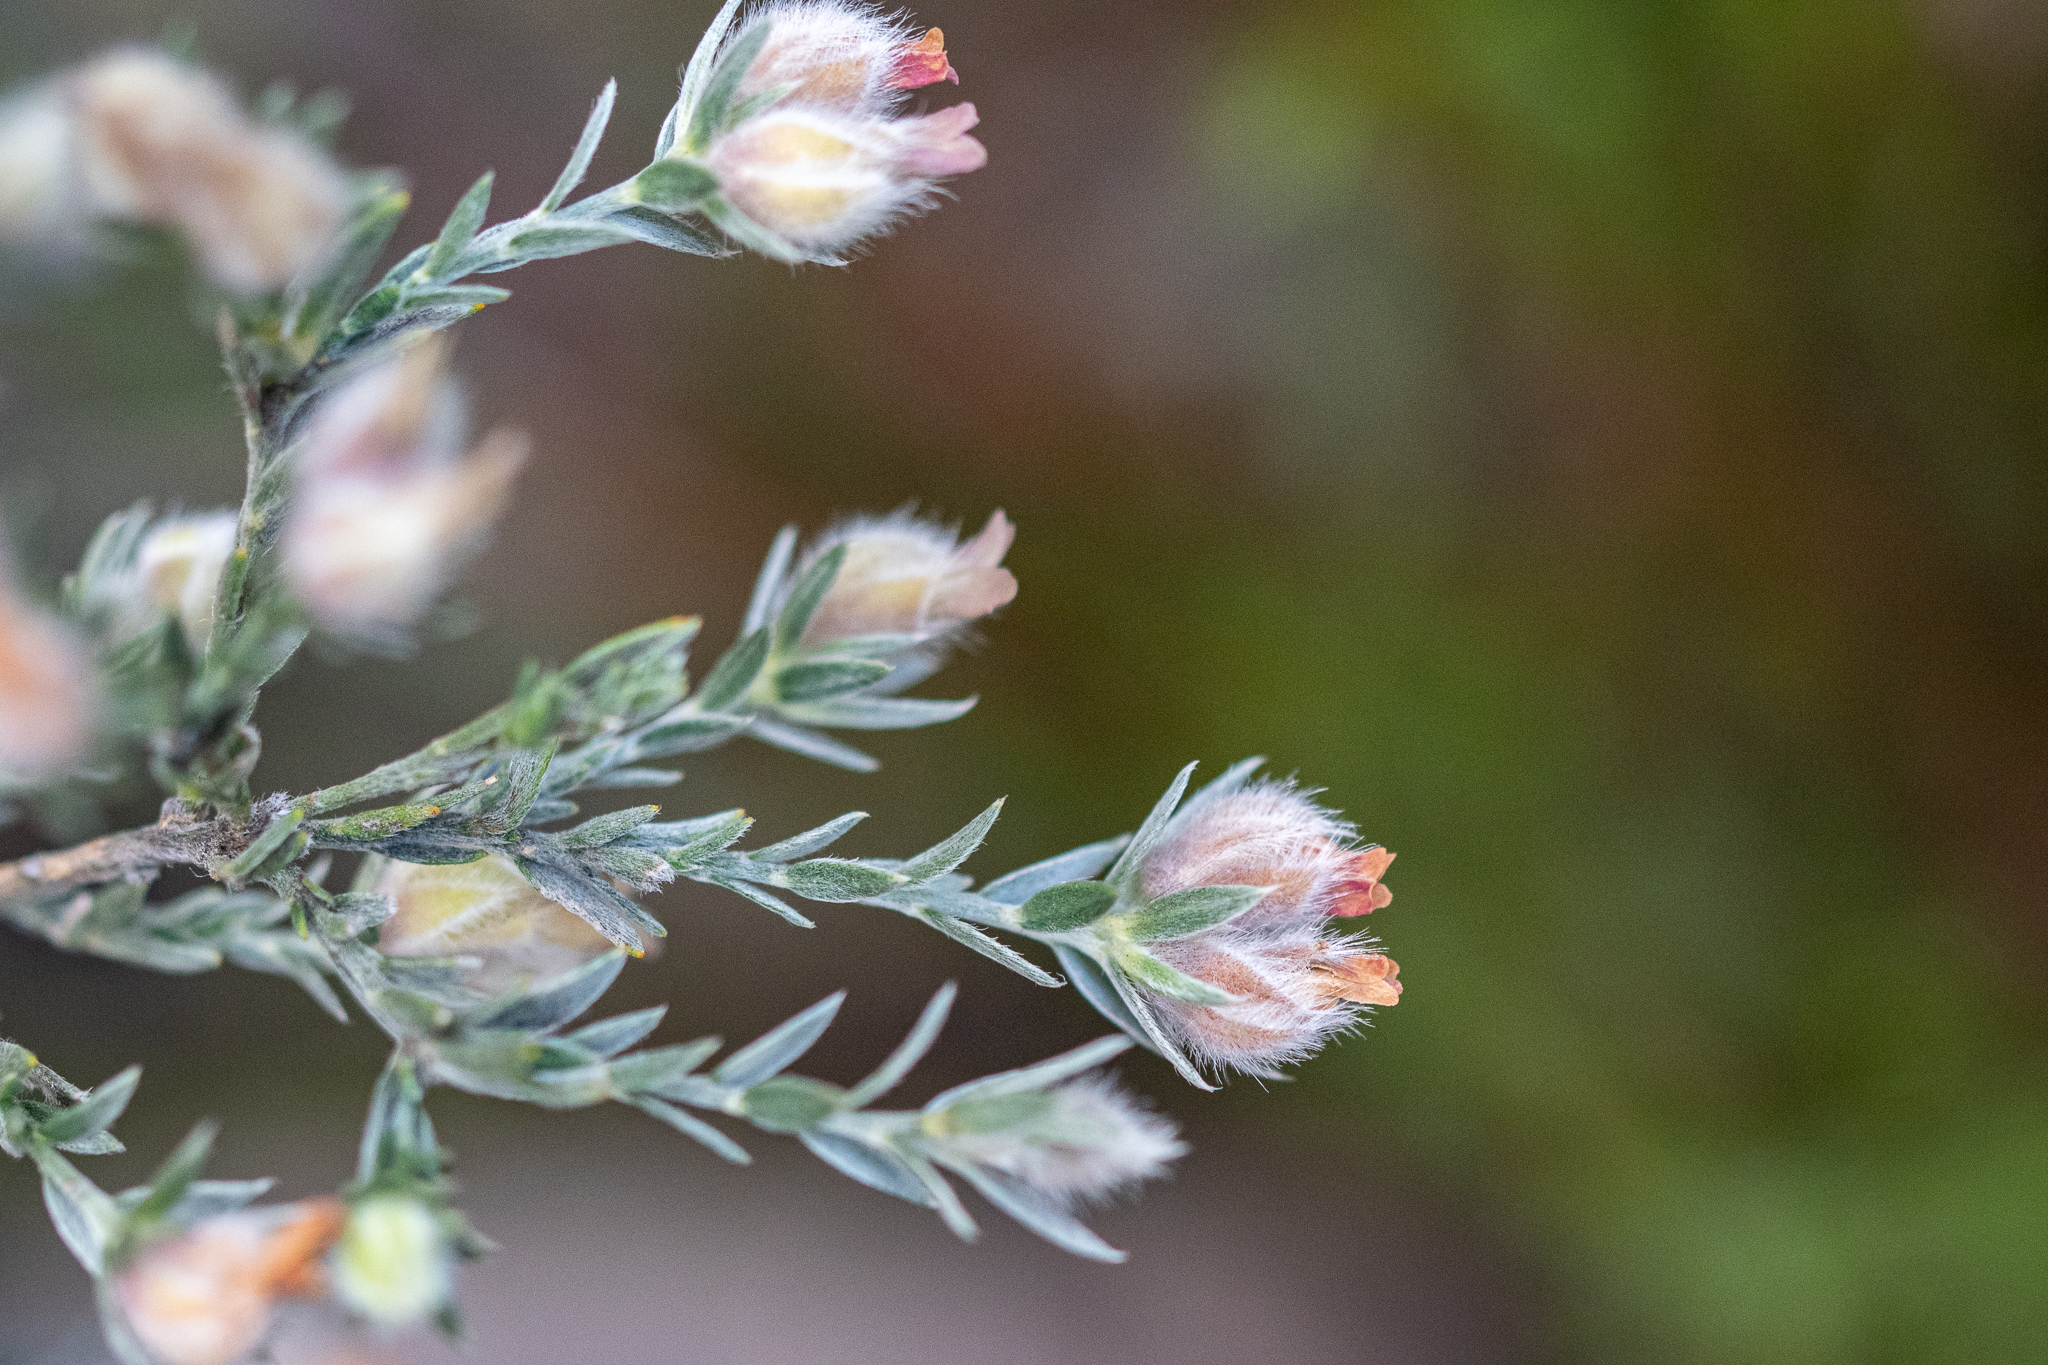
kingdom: Plantae
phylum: Tracheophyta
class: Magnoliopsida
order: Fabales
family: Fabaceae
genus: Amphithalea
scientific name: Amphithalea tomentosa
